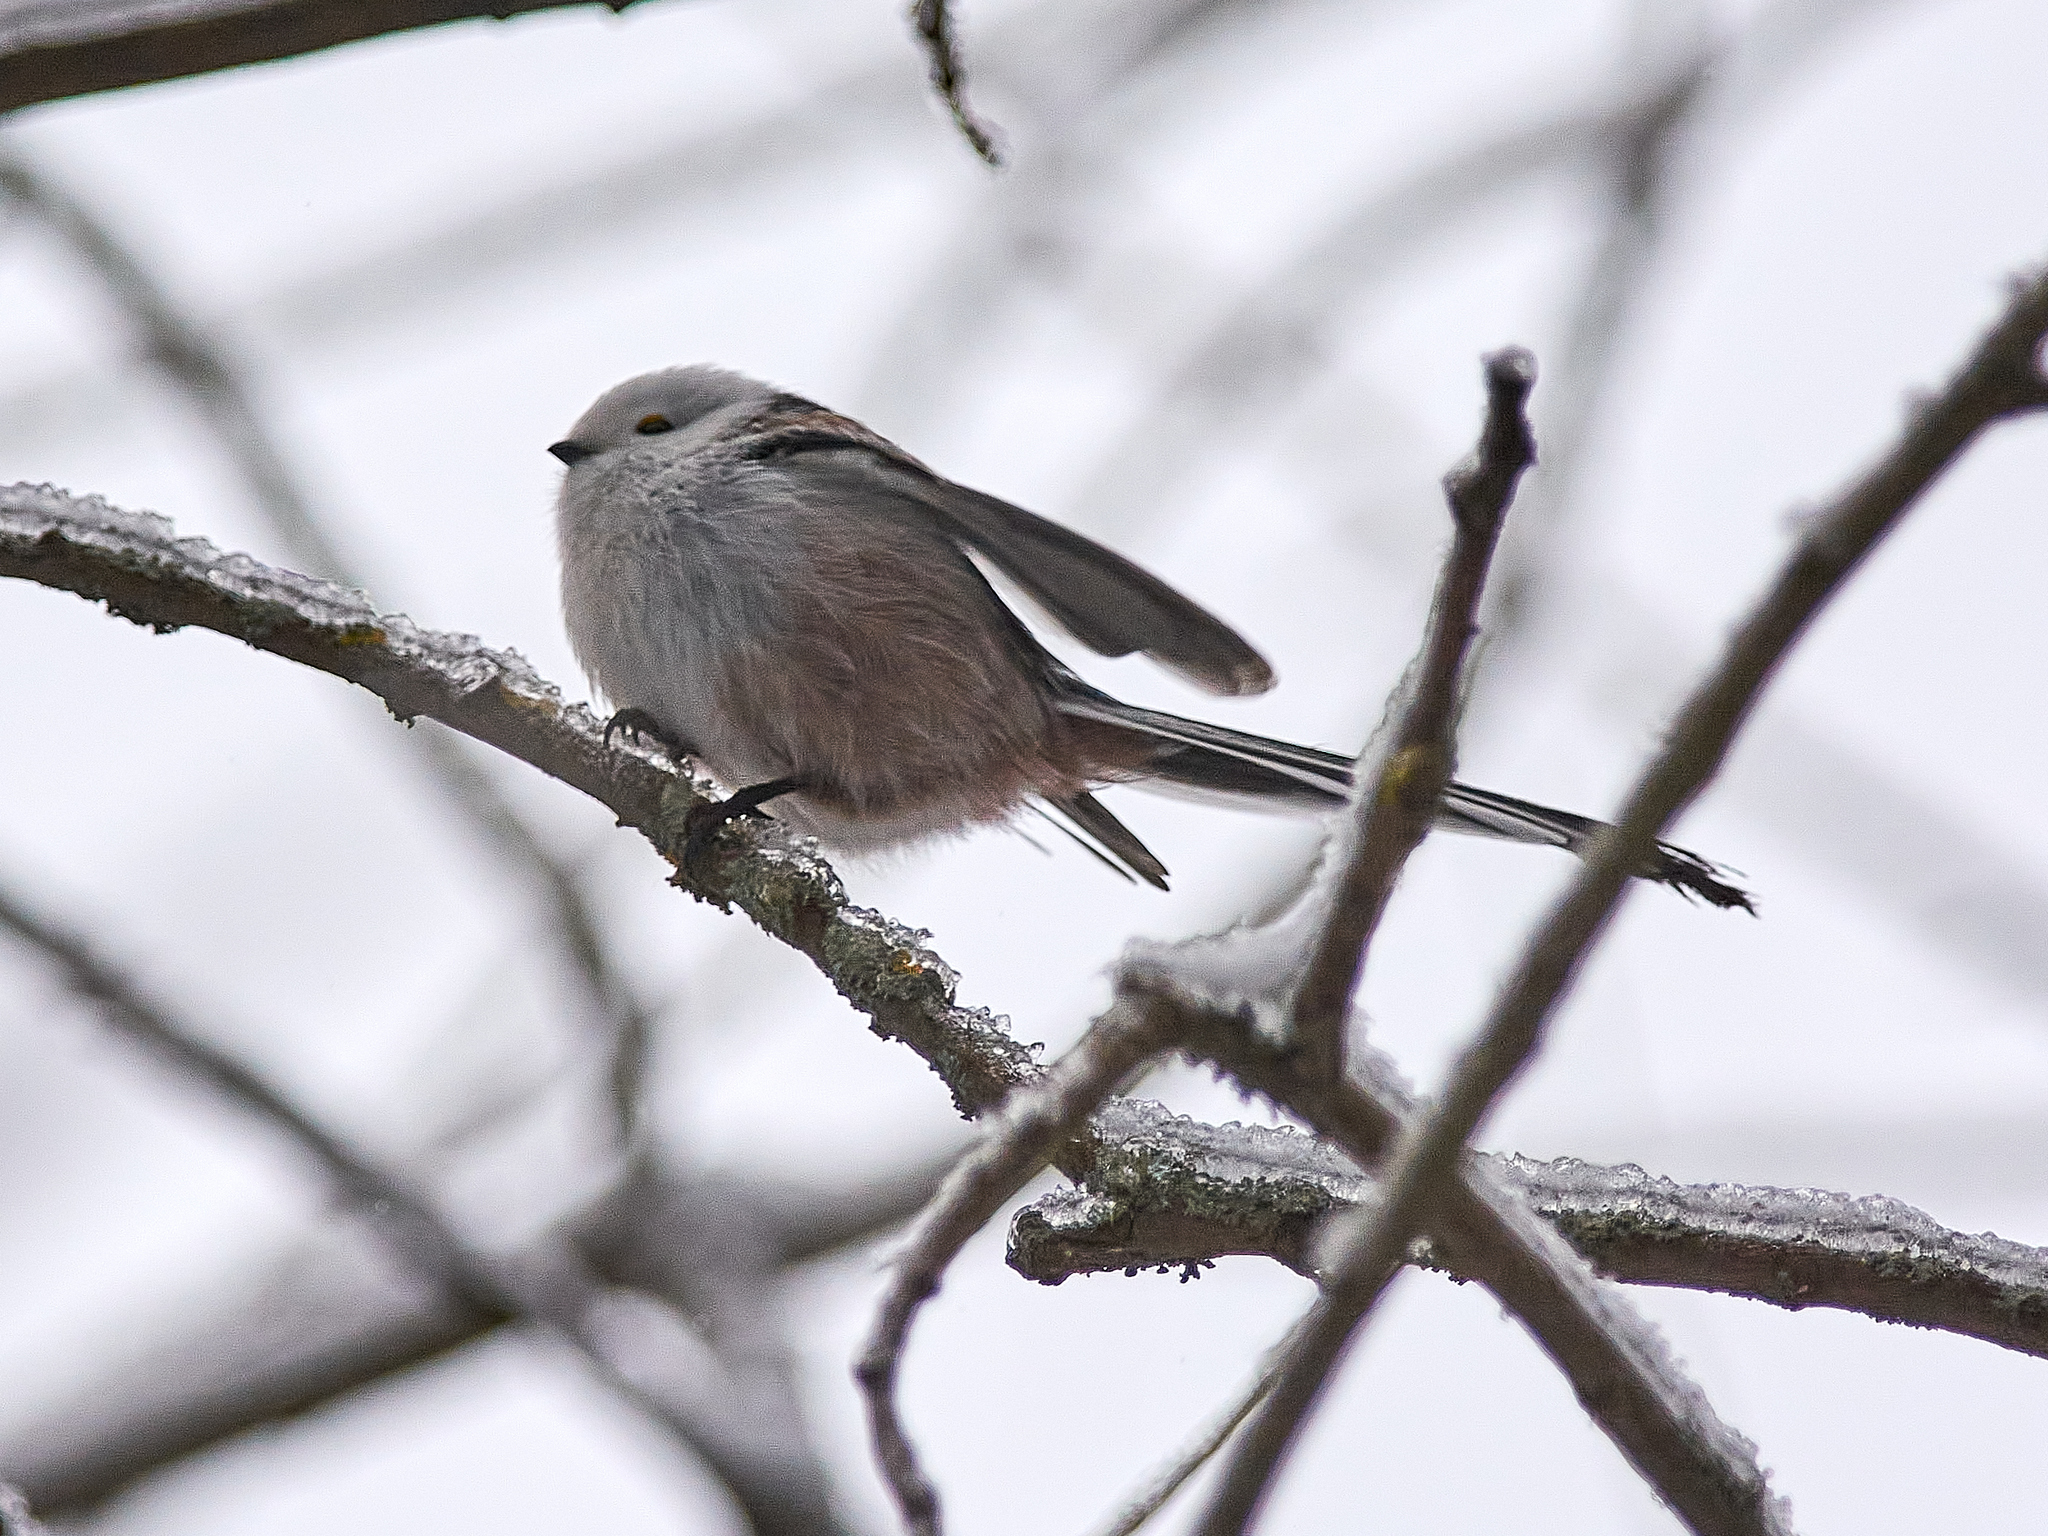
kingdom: Animalia
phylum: Chordata
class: Aves
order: Passeriformes
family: Aegithalidae
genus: Aegithalos
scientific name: Aegithalos caudatus
